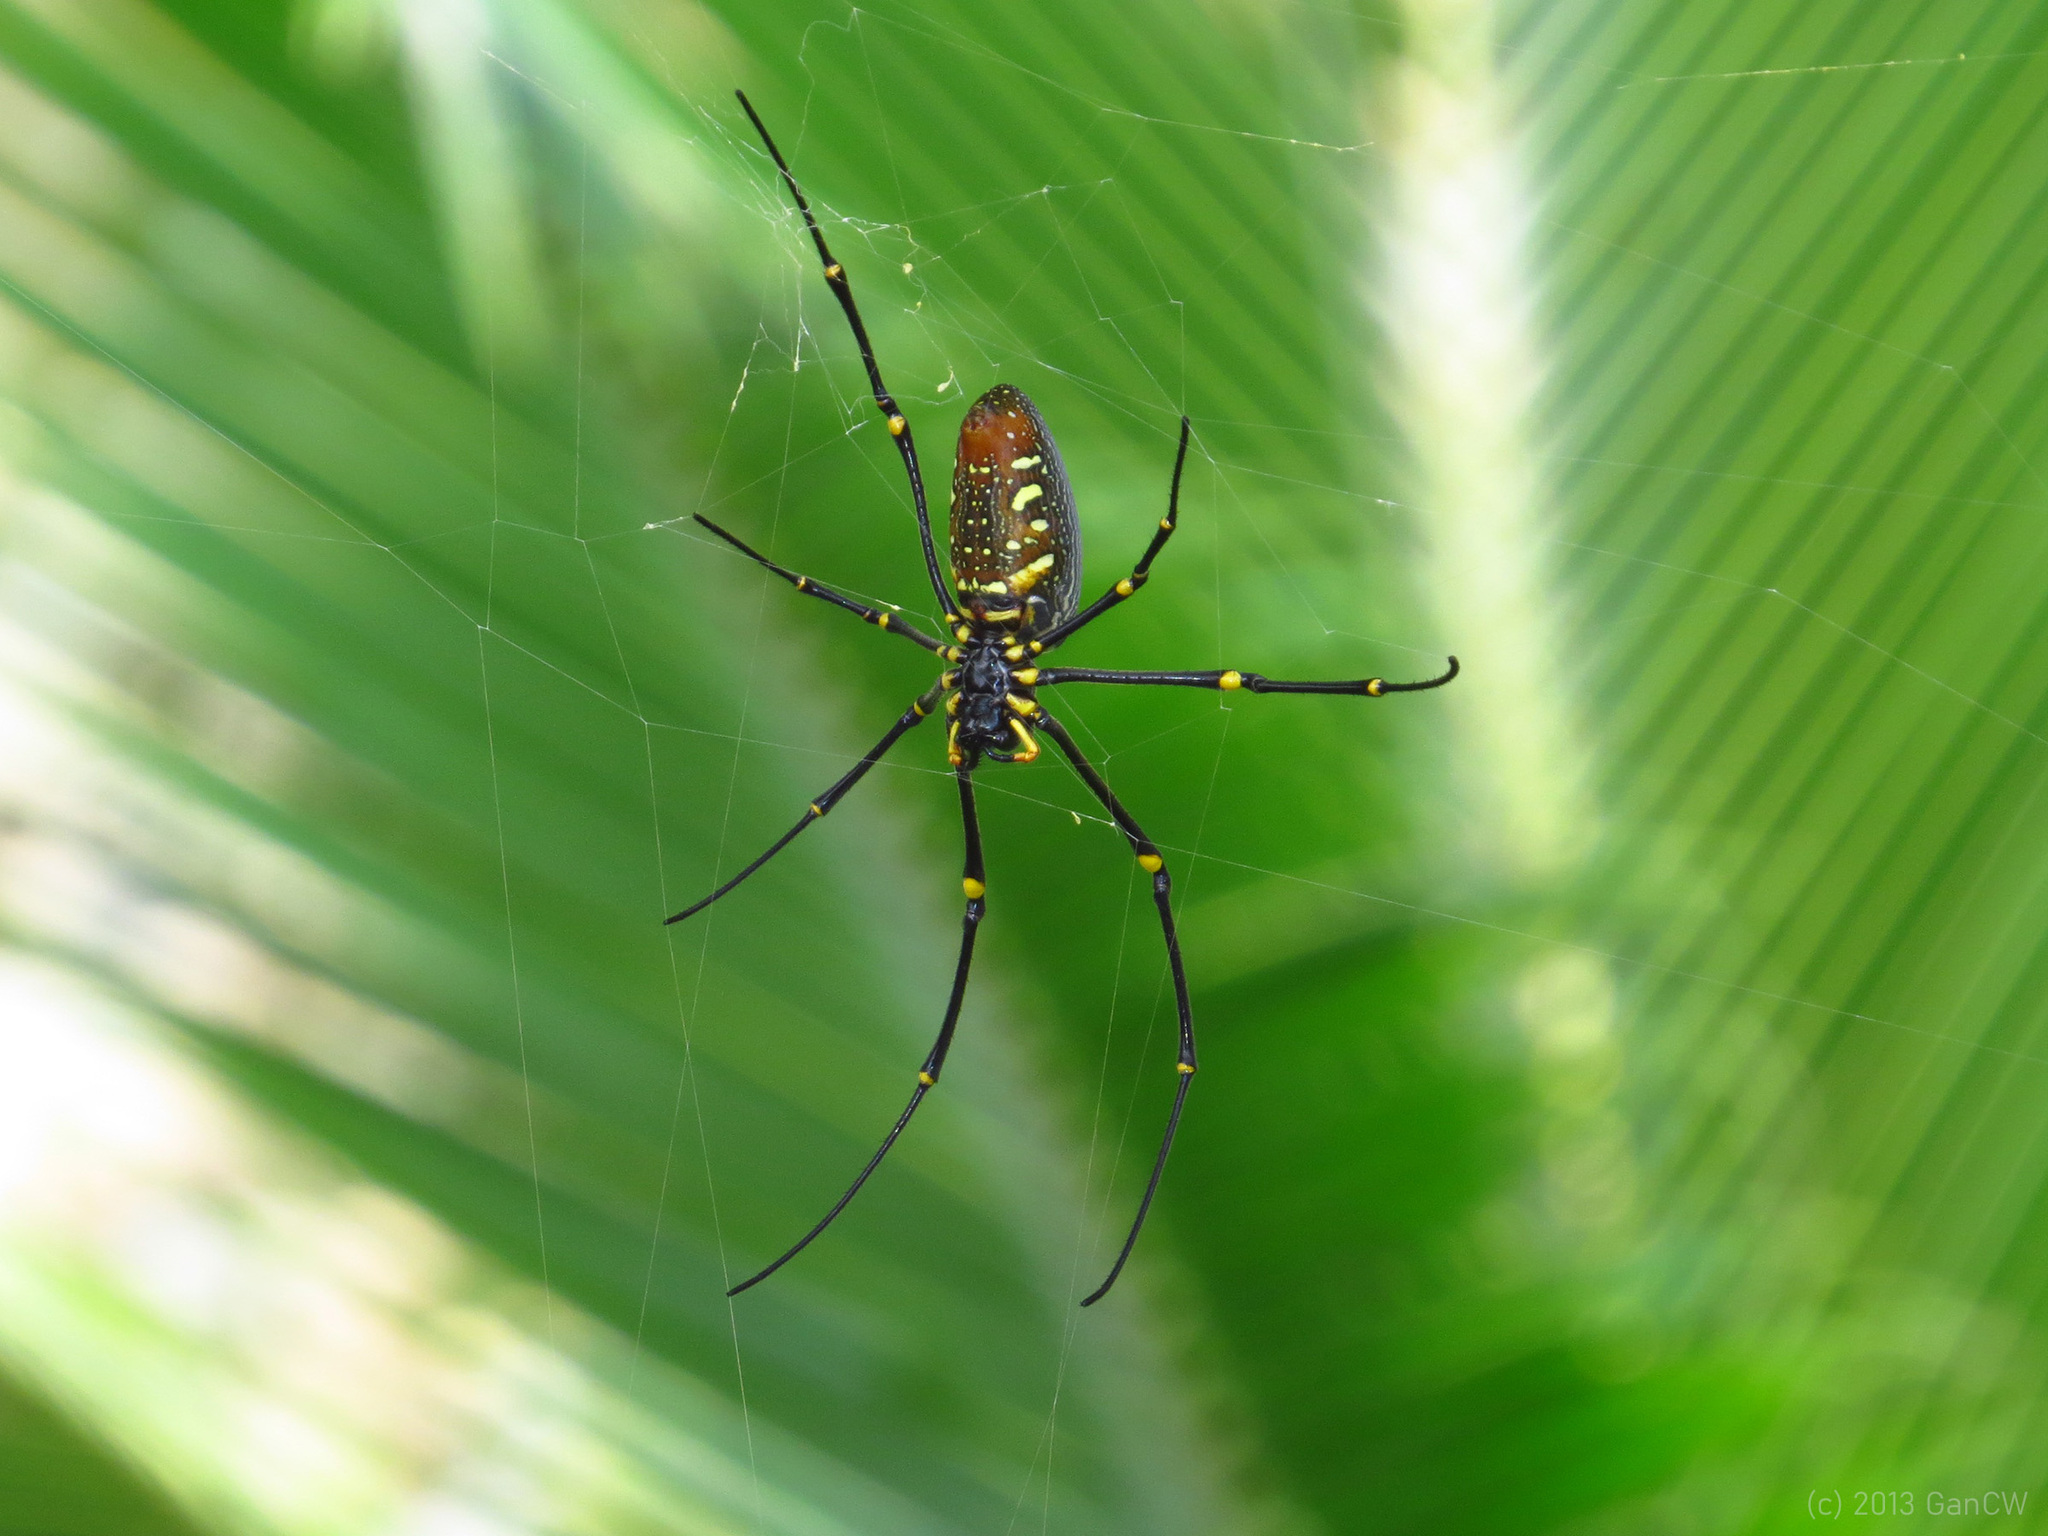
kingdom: Animalia
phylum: Arthropoda
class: Arachnida
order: Araneae
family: Araneidae
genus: Nephila
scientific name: Nephila pilipes
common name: Giant golden orb weaver
